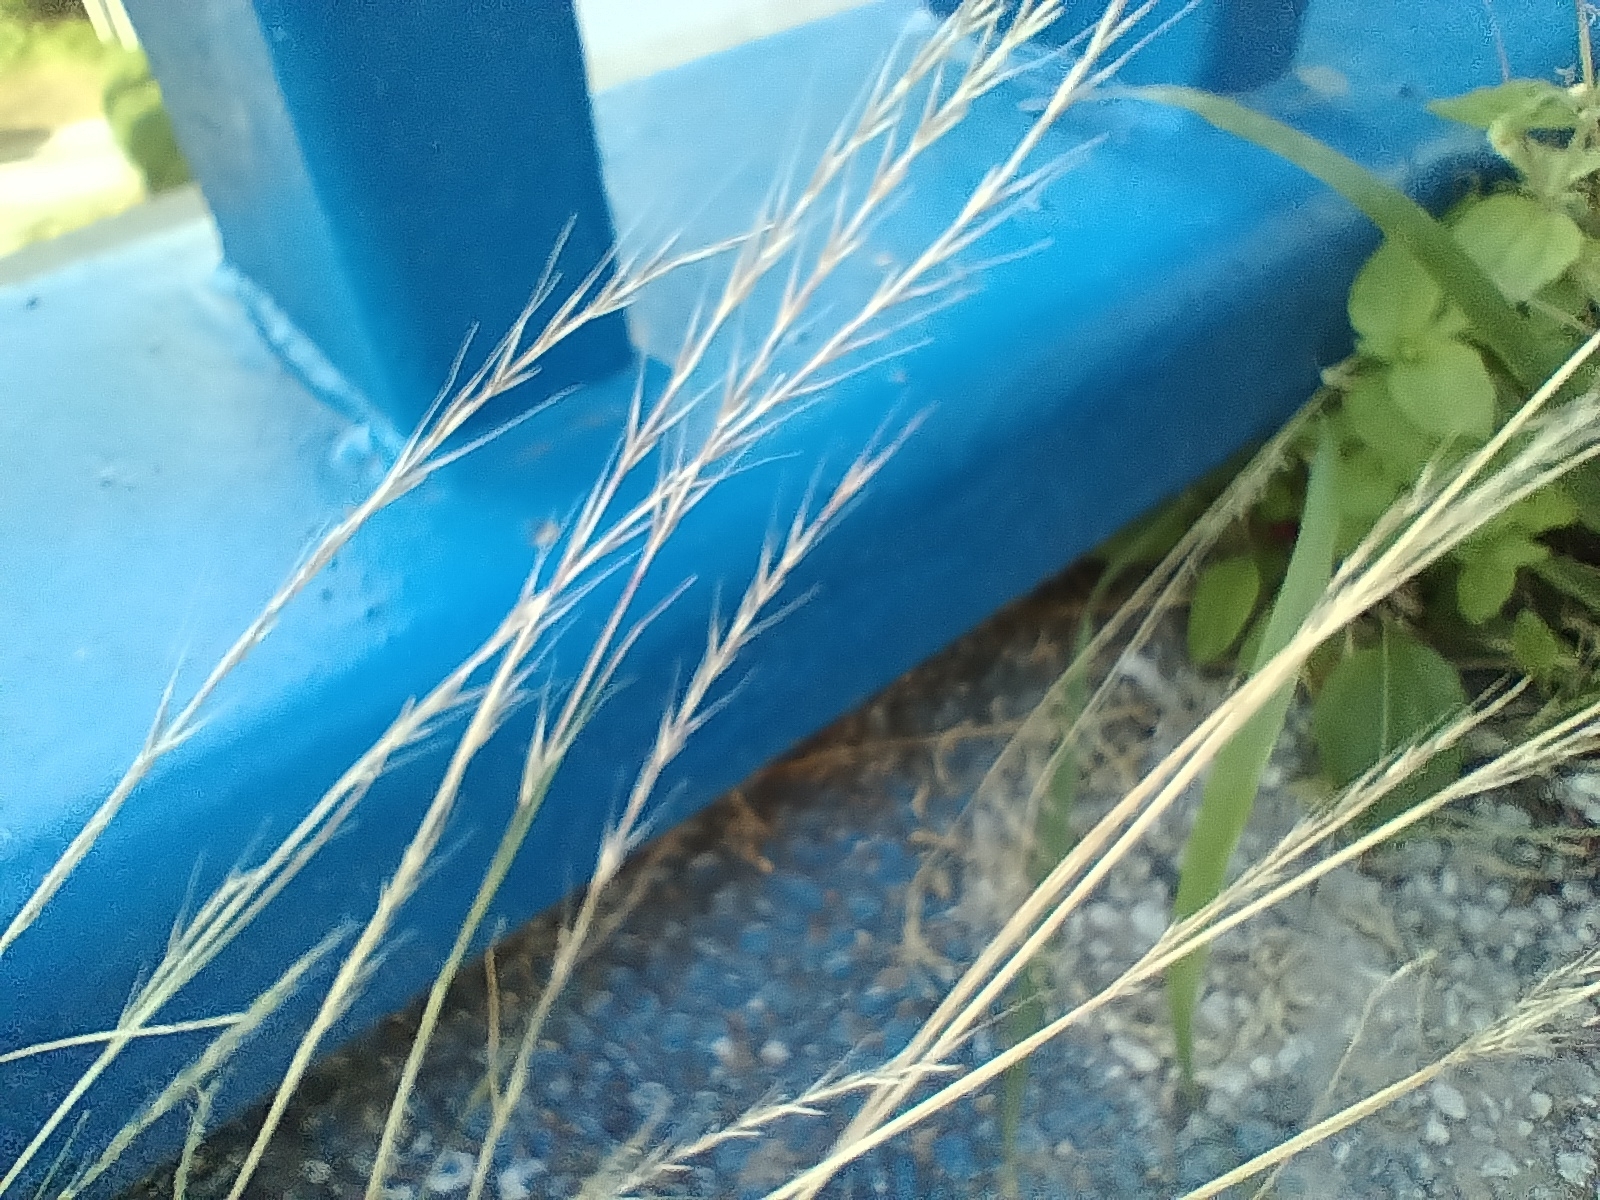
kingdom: Plantae
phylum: Tracheophyta
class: Liliopsida
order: Poales
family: Poaceae
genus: Festuca
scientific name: Festuca myuros
